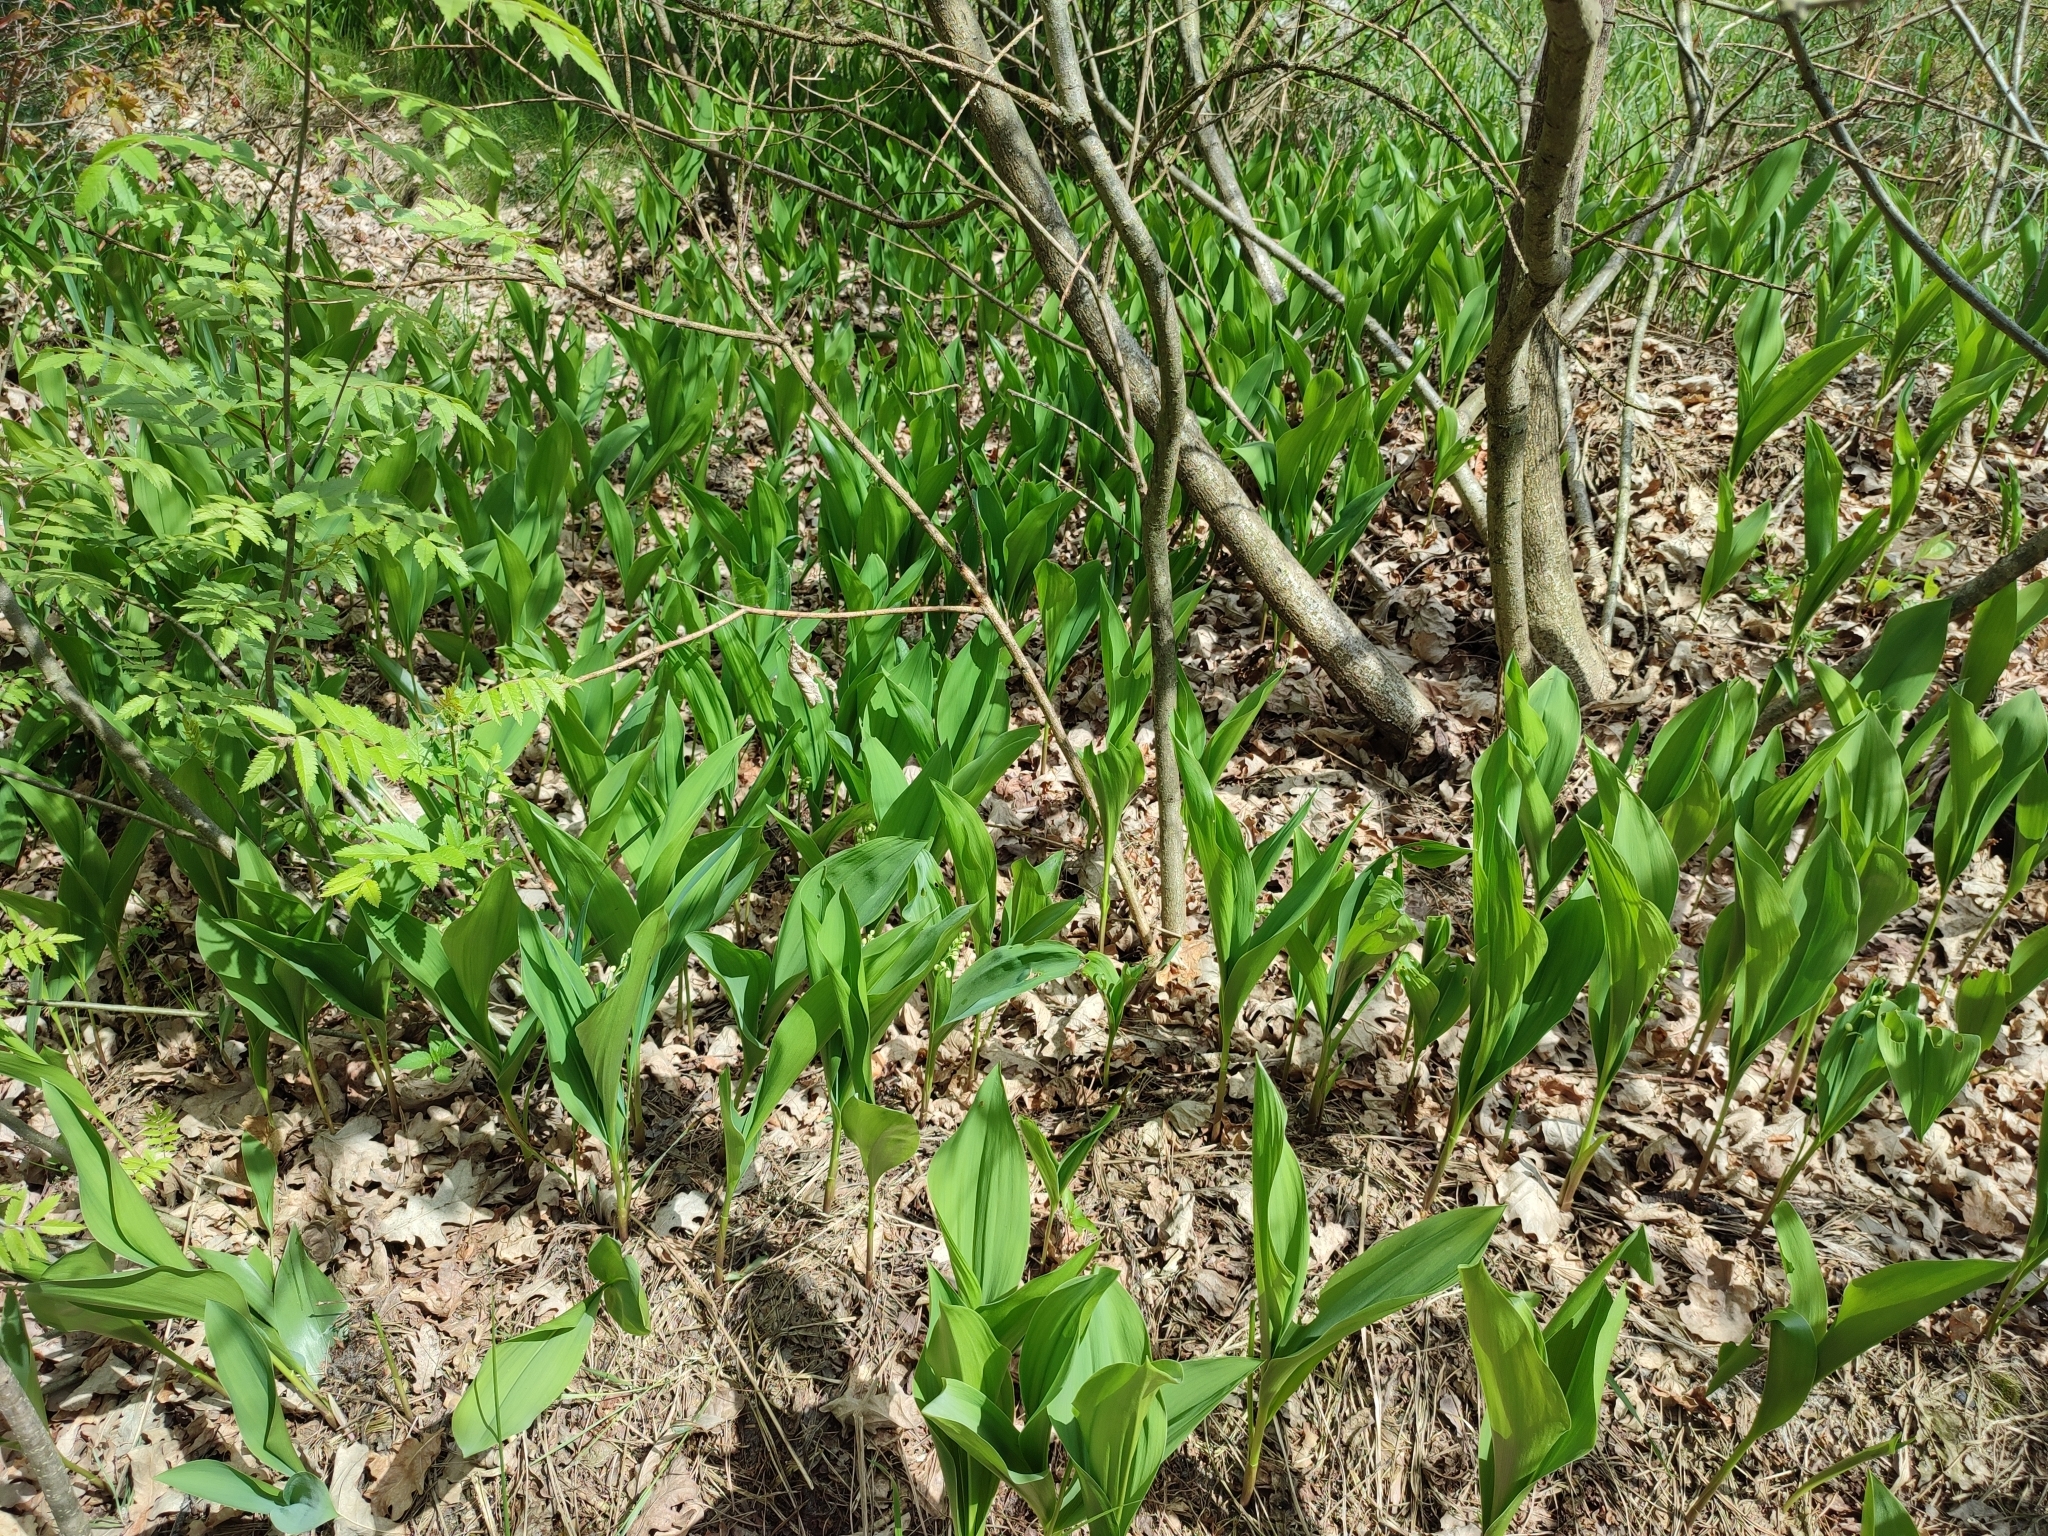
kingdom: Plantae
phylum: Tracheophyta
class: Liliopsida
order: Asparagales
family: Asparagaceae
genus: Convallaria
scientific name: Convallaria majalis
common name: Lily-of-the-valley
